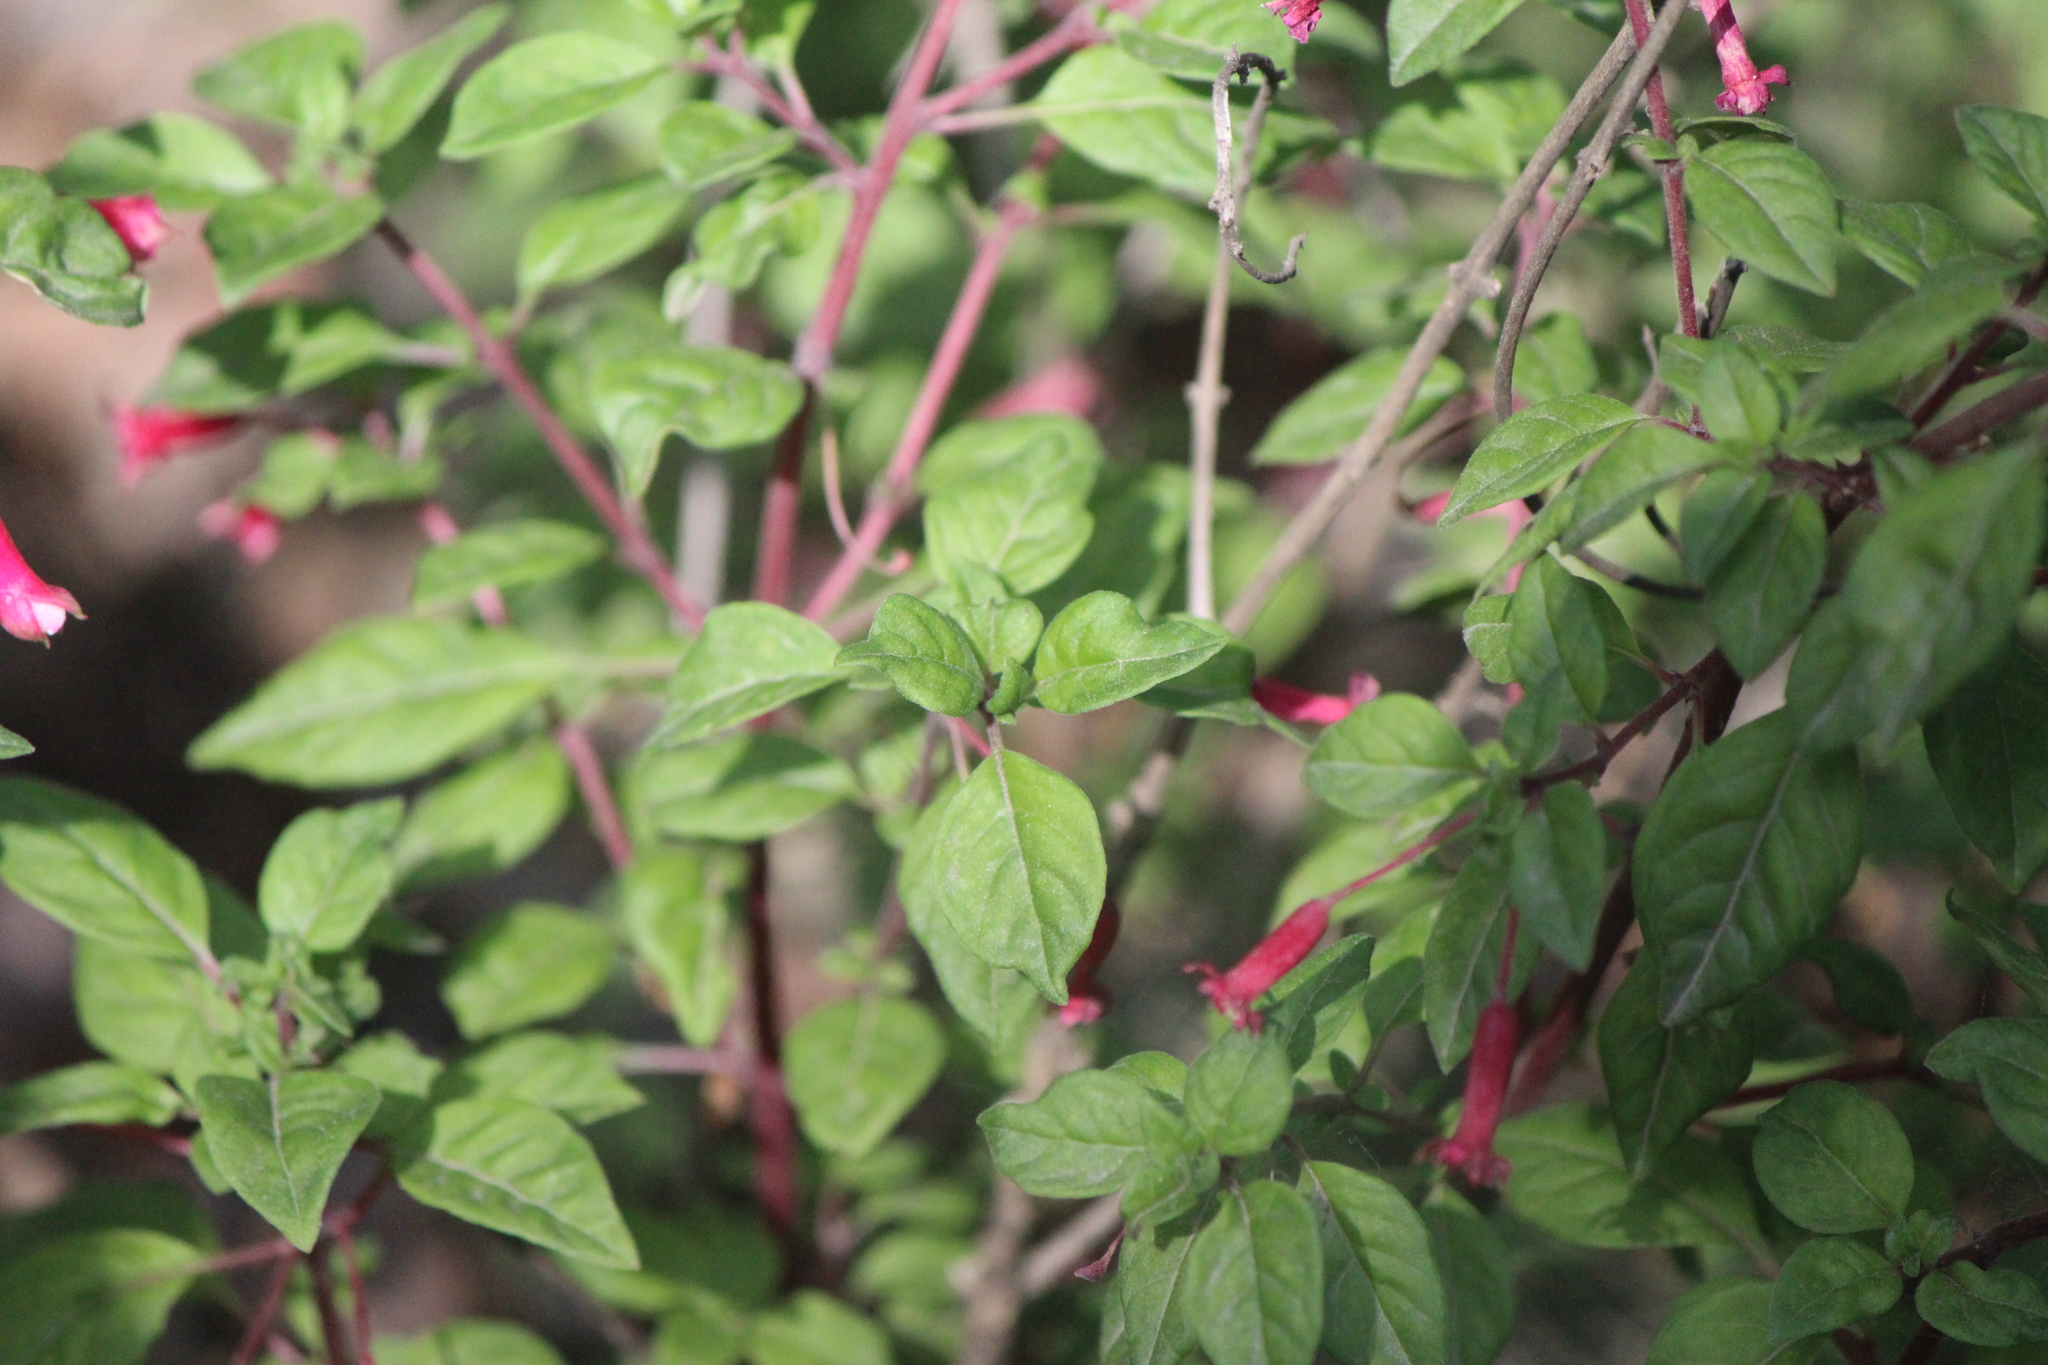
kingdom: Plantae
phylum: Tracheophyta
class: Magnoliopsida
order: Myrtales
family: Onagraceae
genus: Fuchsia
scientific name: Fuchsia ravenii
